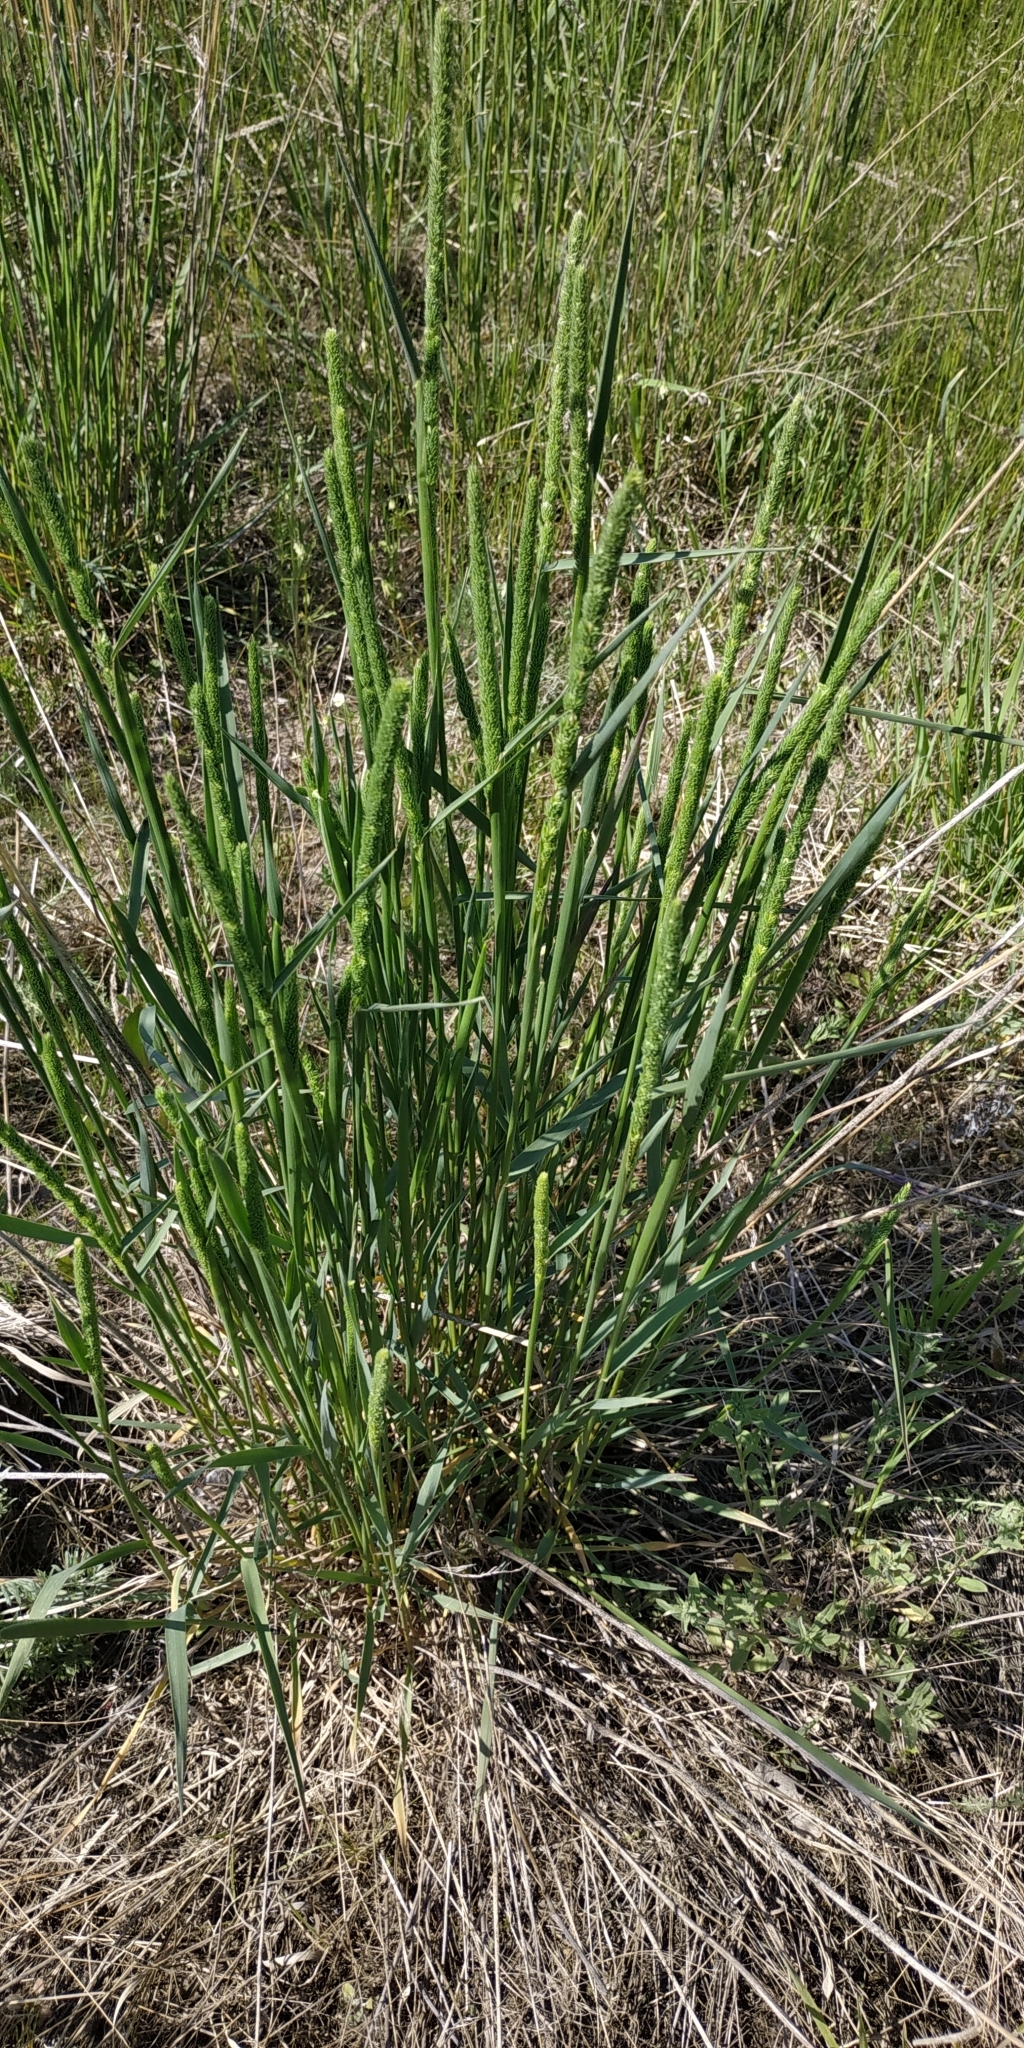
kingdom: Plantae
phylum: Tracheophyta
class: Liliopsida
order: Poales
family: Poaceae
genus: Phleum
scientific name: Phleum pratense
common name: Timothy grass
